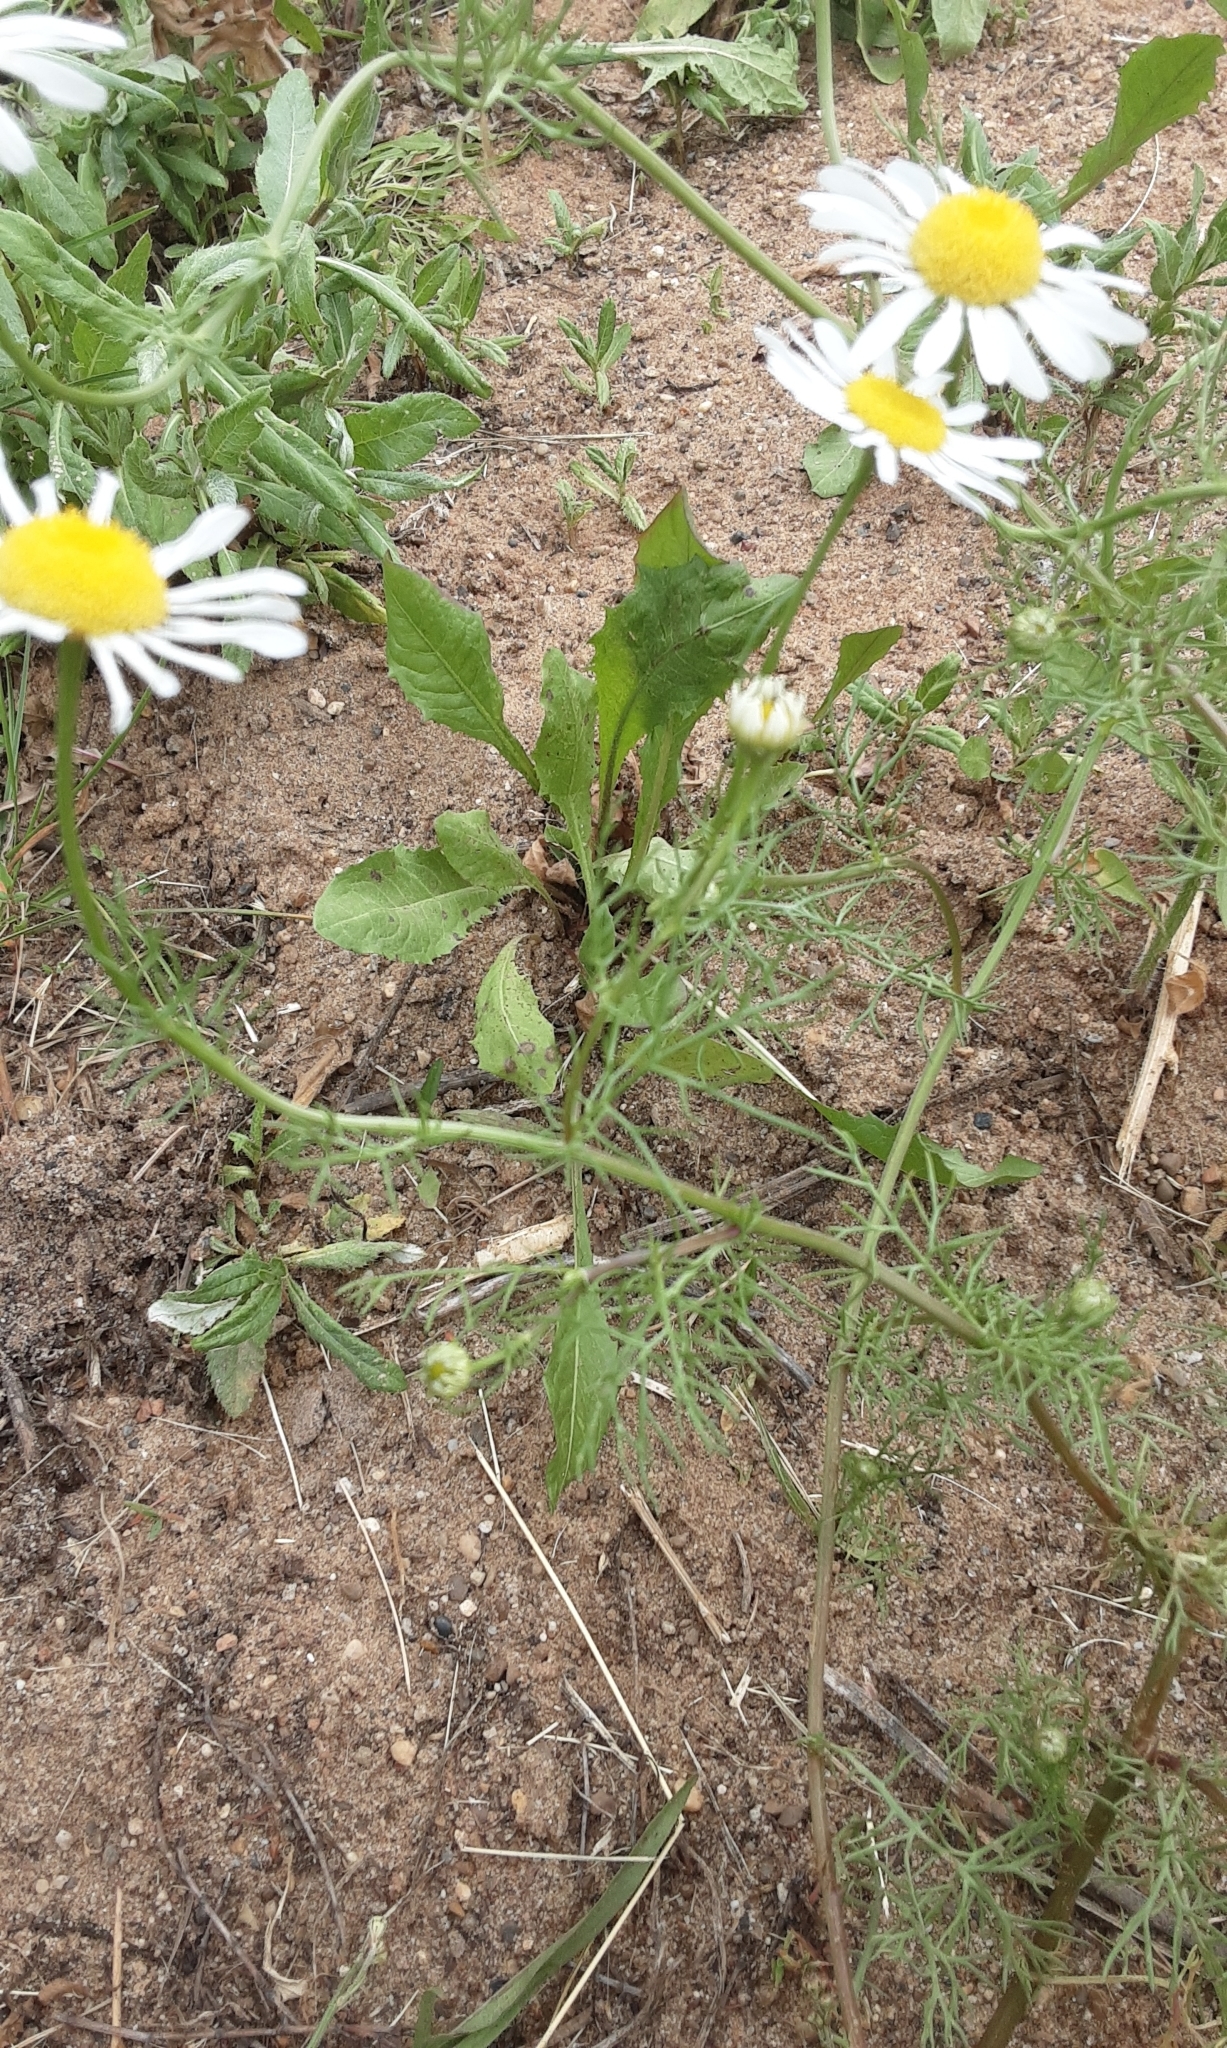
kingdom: Plantae
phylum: Tracheophyta
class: Magnoliopsida
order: Asterales
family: Asteraceae
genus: Tripleurospermum
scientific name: Tripleurospermum inodorum
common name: Scentless mayweed
